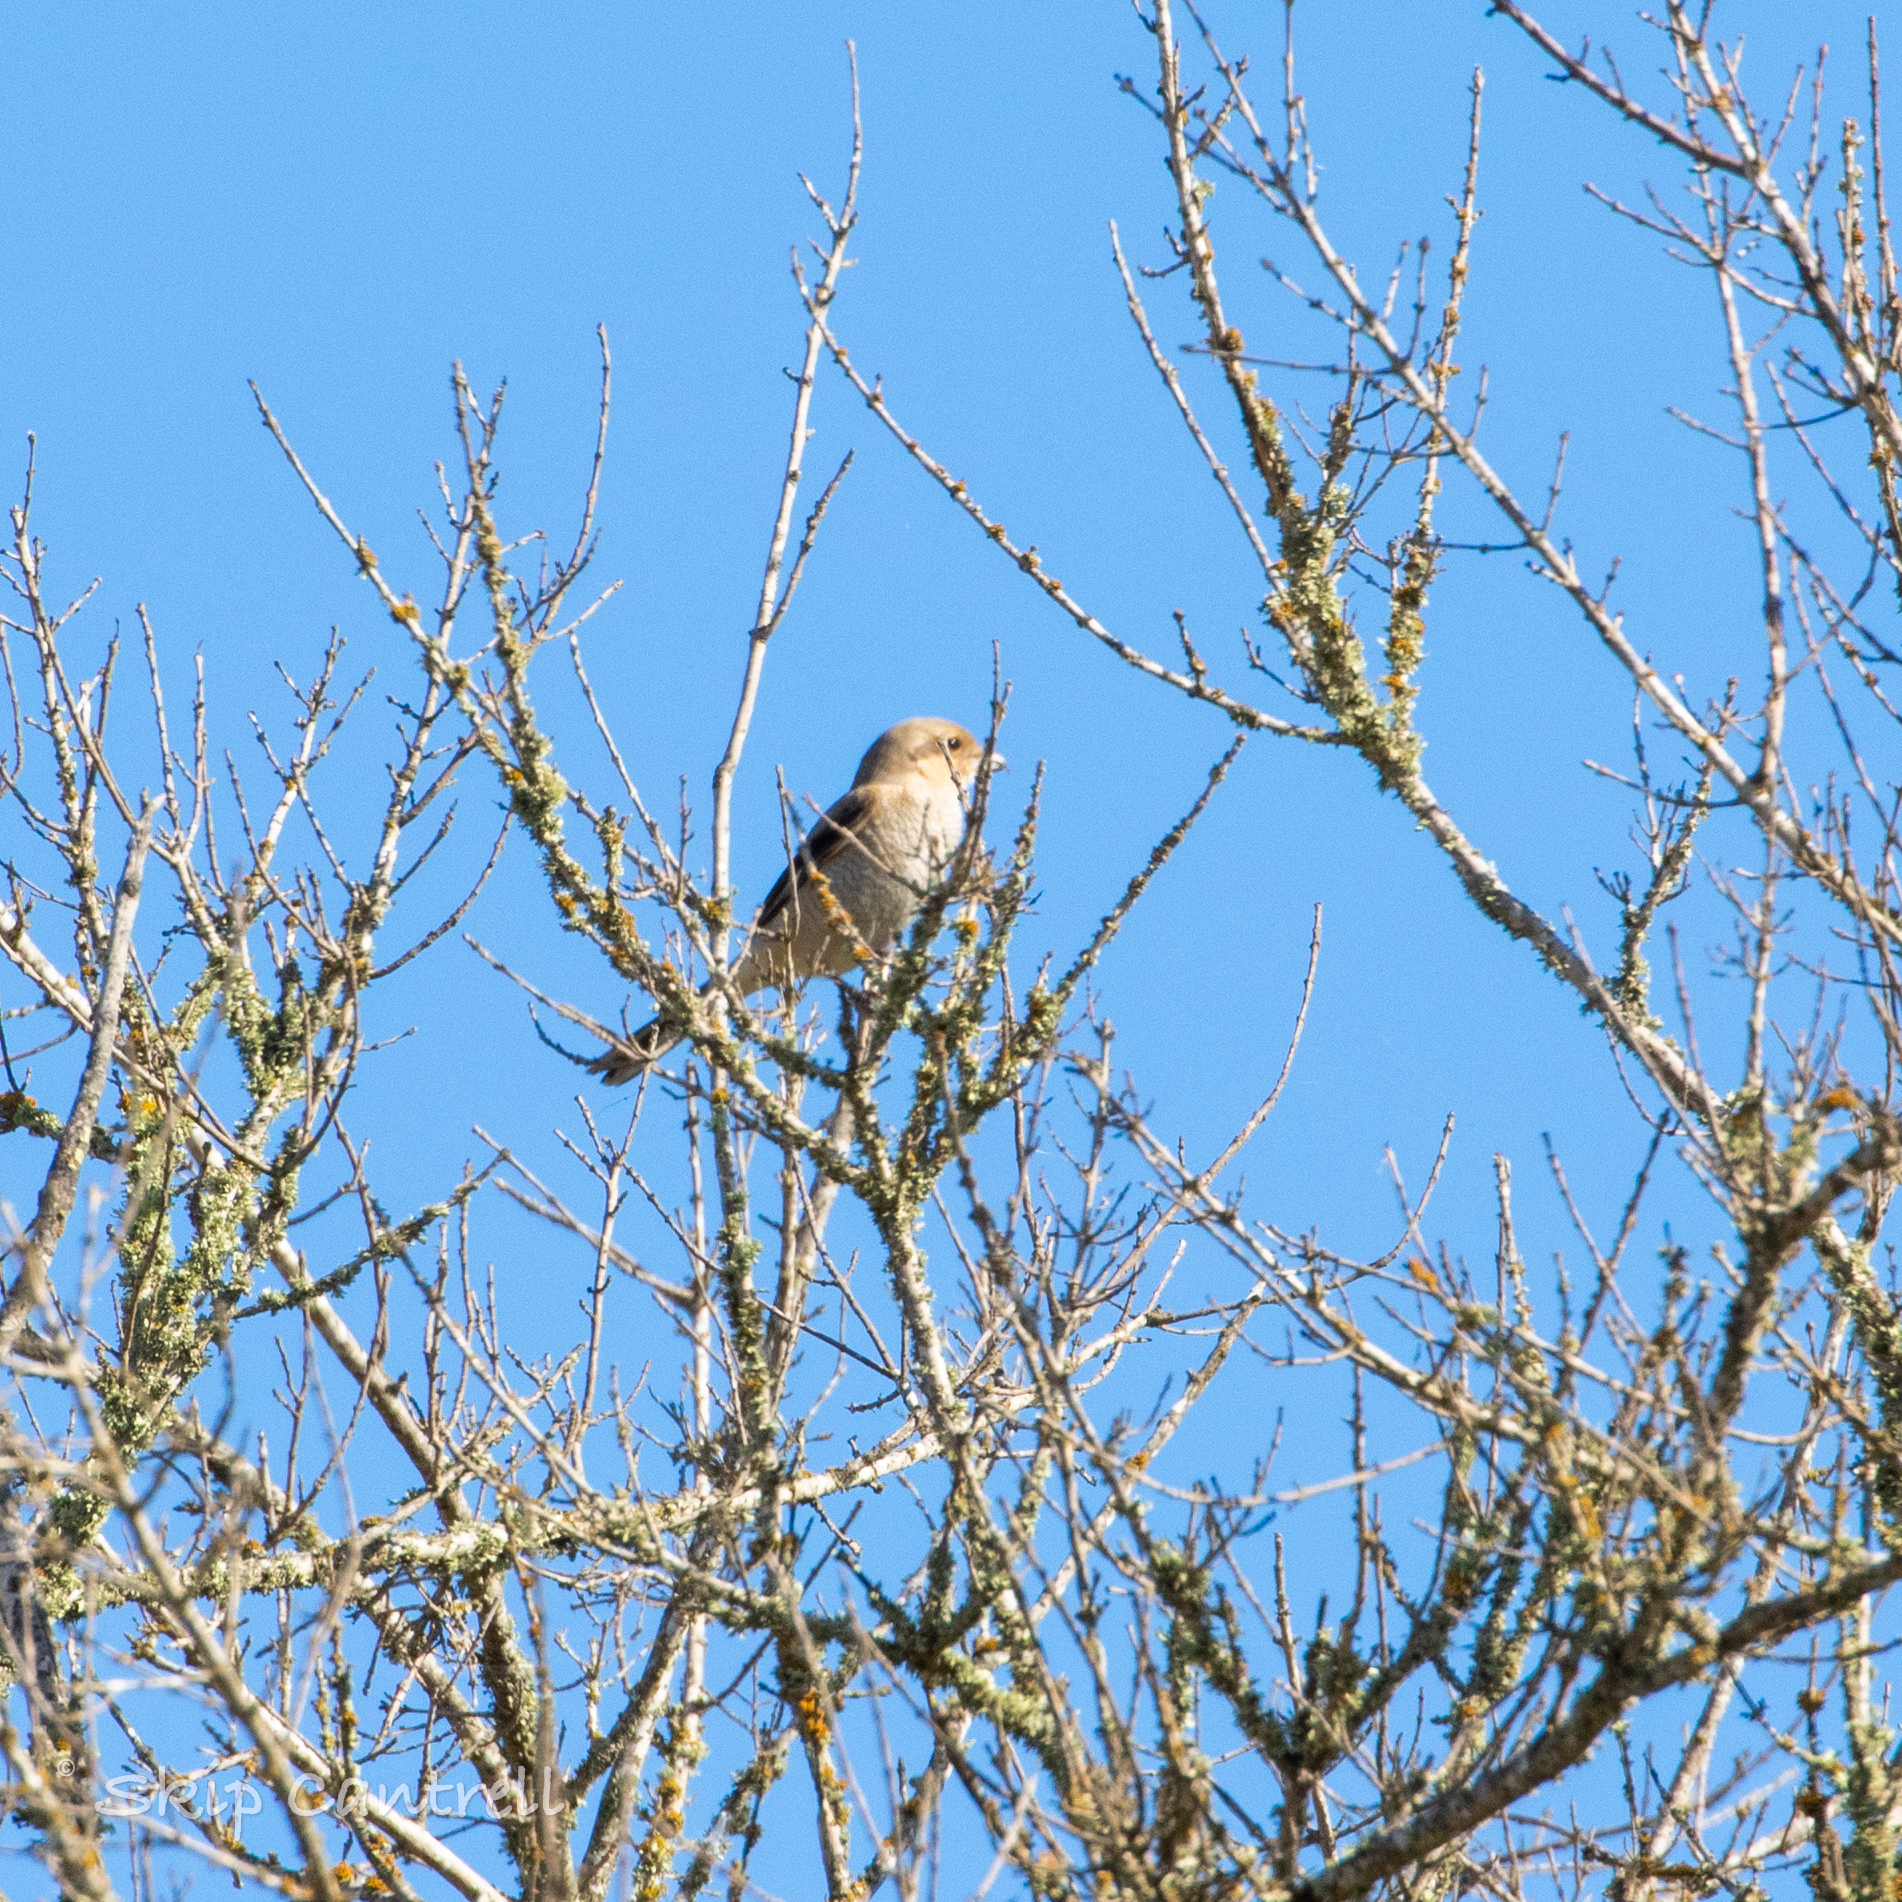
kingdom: Animalia
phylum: Chordata
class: Aves
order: Passeriformes
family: Laniidae
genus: Lanius
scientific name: Lanius borealis
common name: Northern shrike
